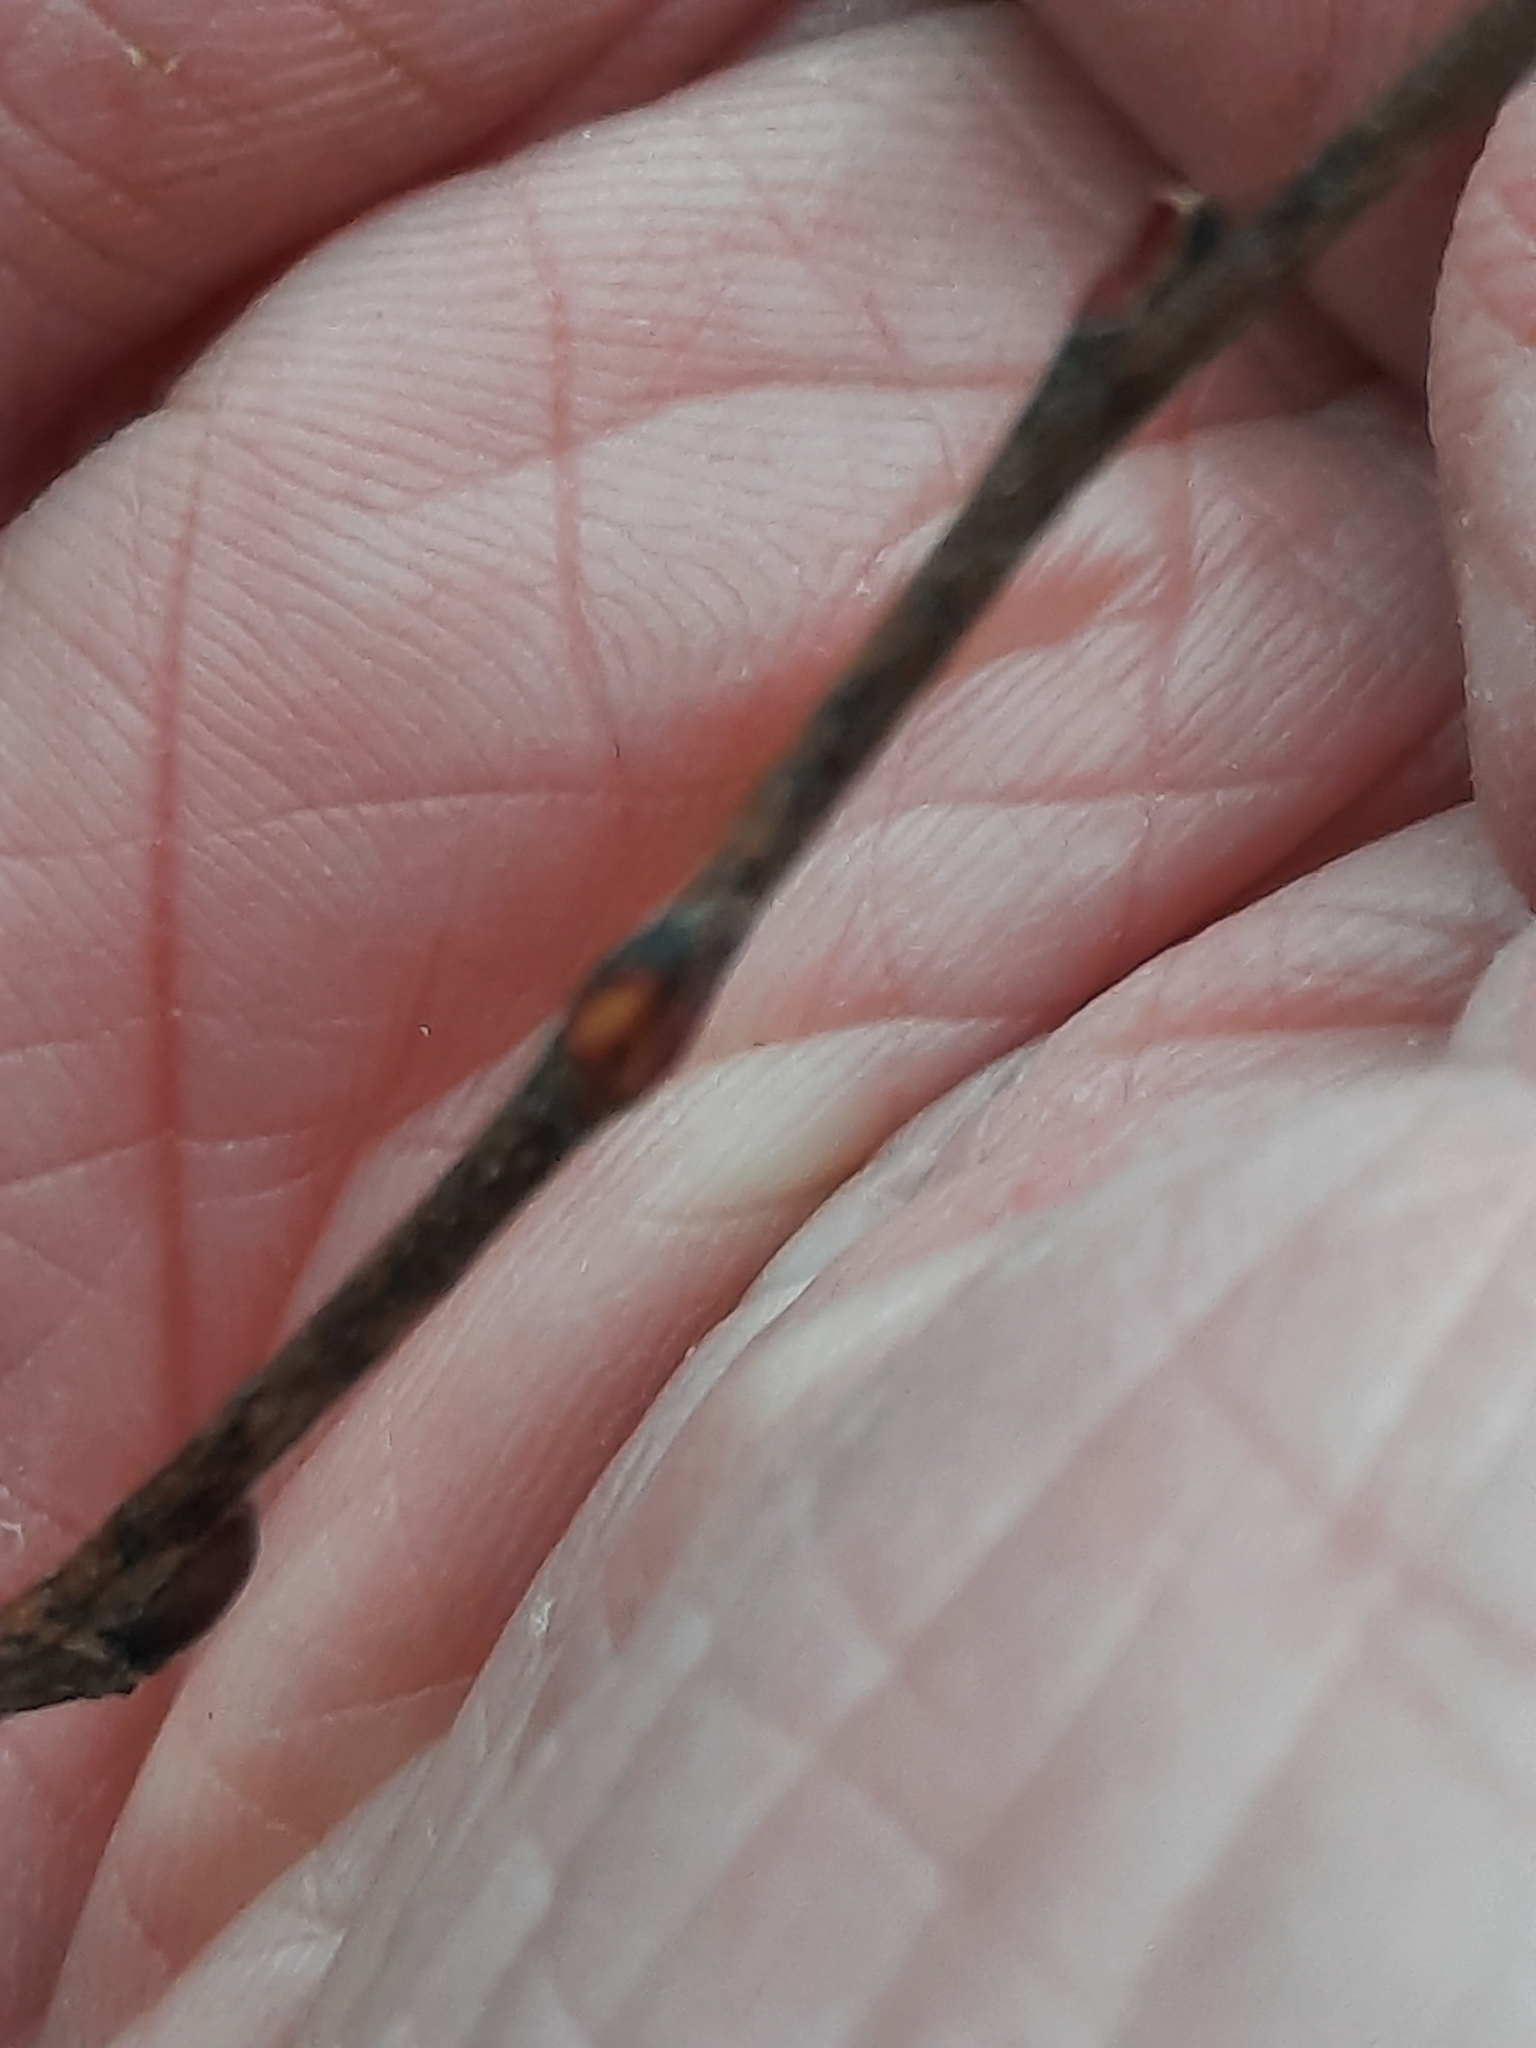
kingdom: Plantae
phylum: Tracheophyta
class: Magnoliopsida
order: Ericales
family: Ericaceae
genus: Lyonia
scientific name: Lyonia ligustrina
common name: Maleberry
